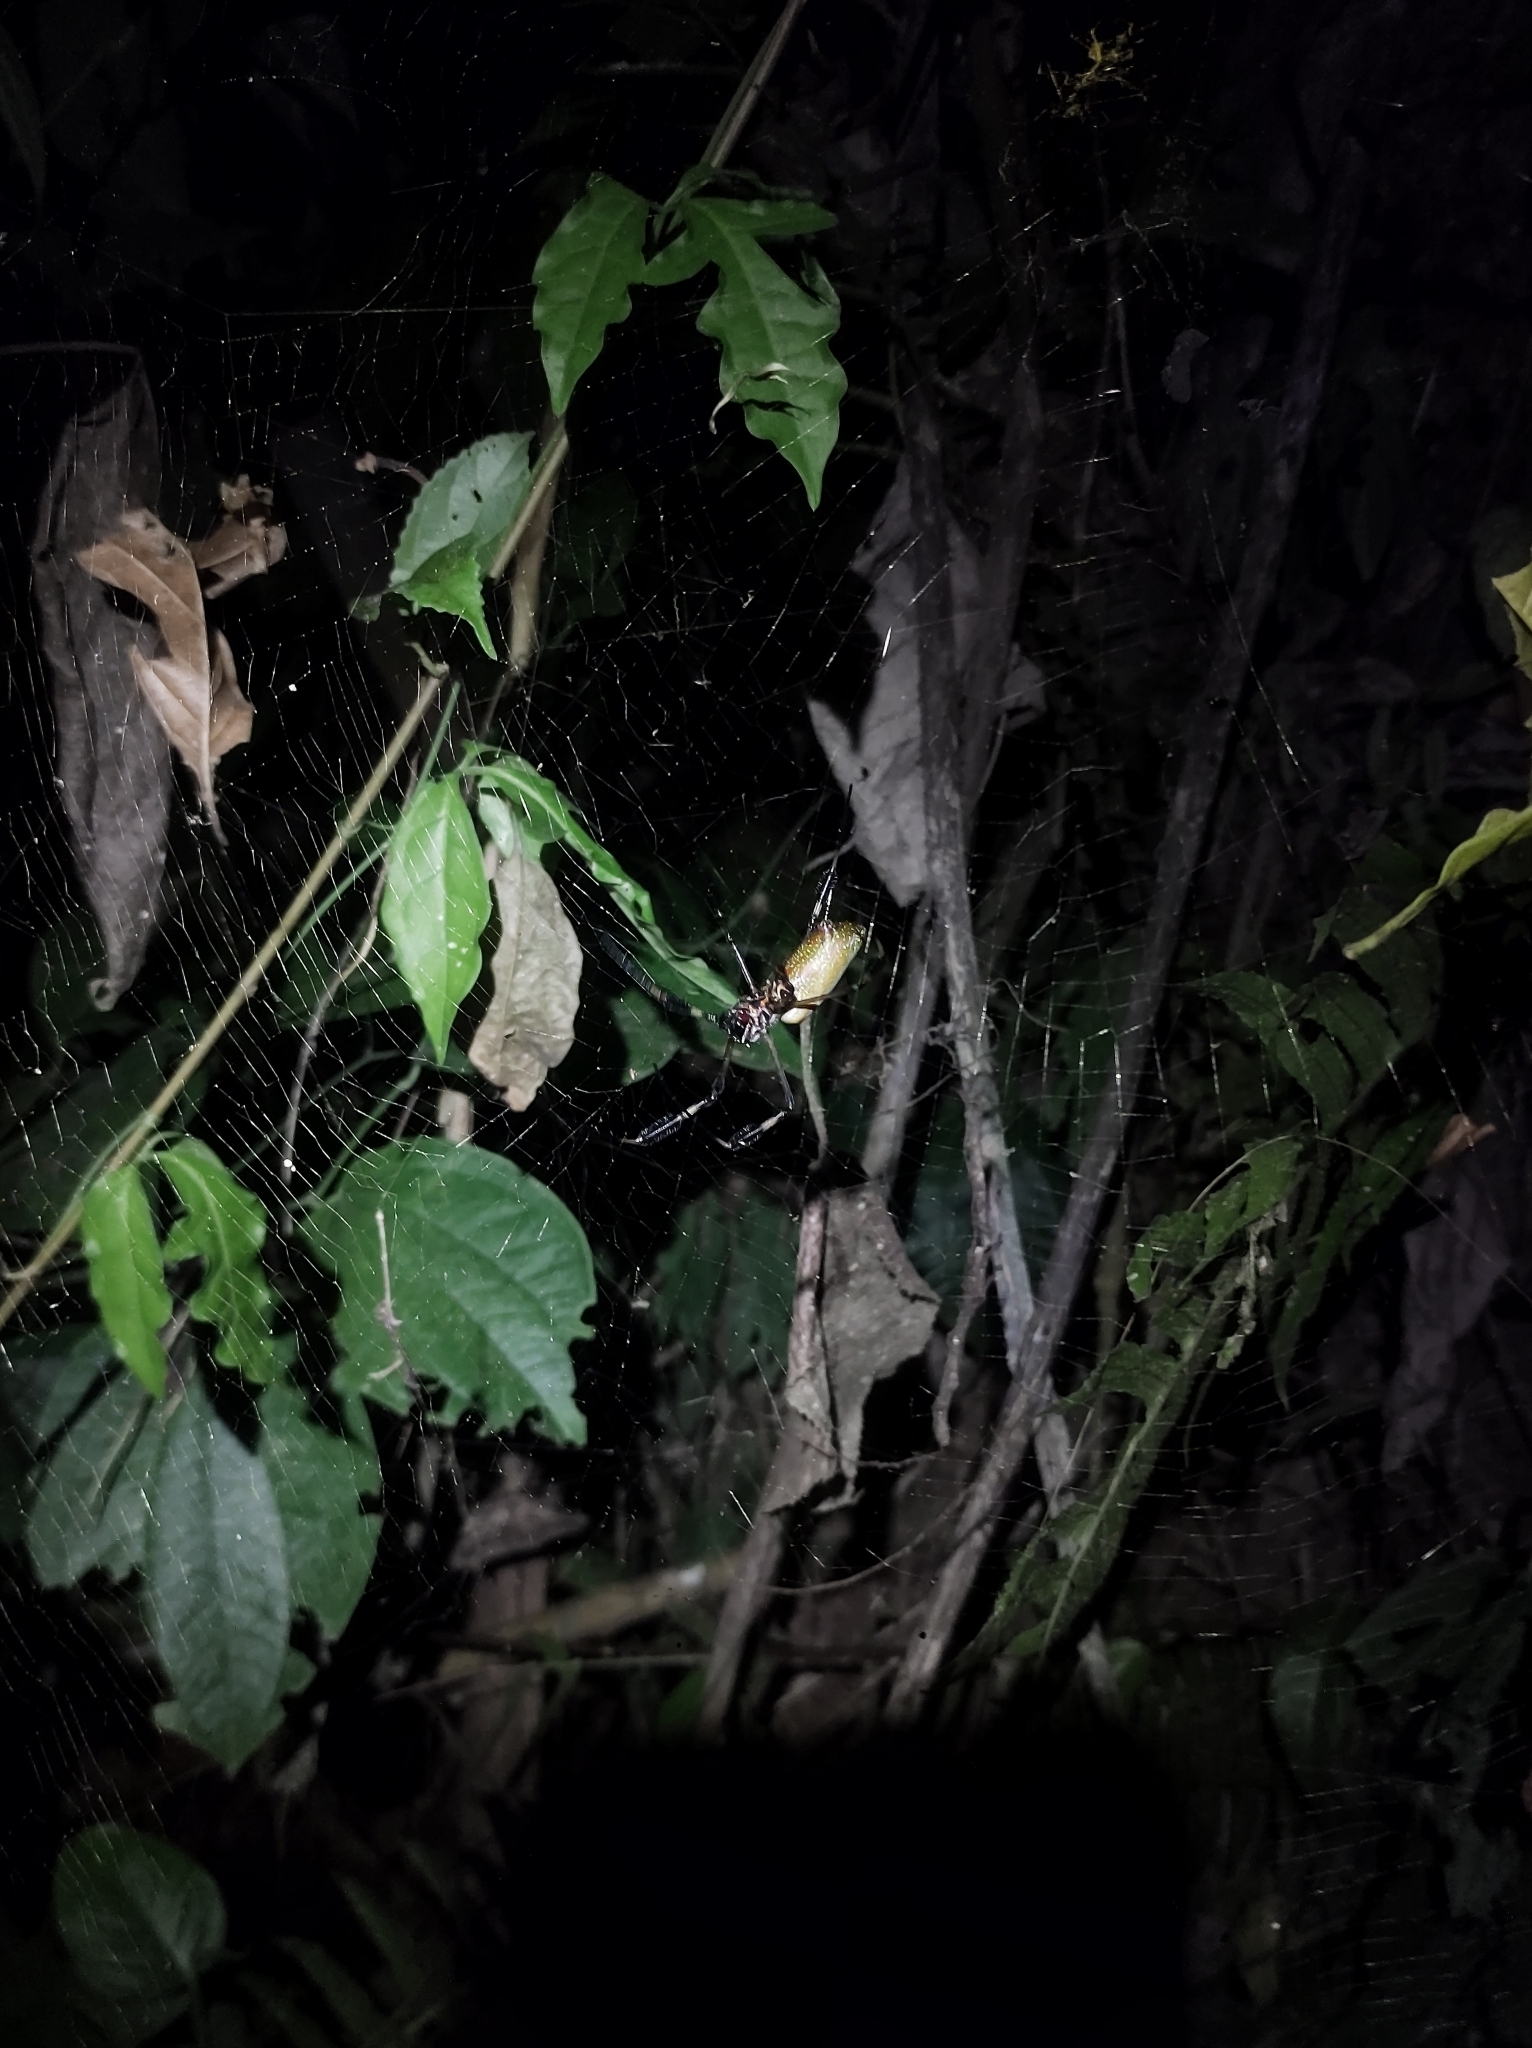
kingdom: Animalia
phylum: Arthropoda
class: Arachnida
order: Araneae
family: Araneidae
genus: Trichonephila
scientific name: Trichonephila clavipes
